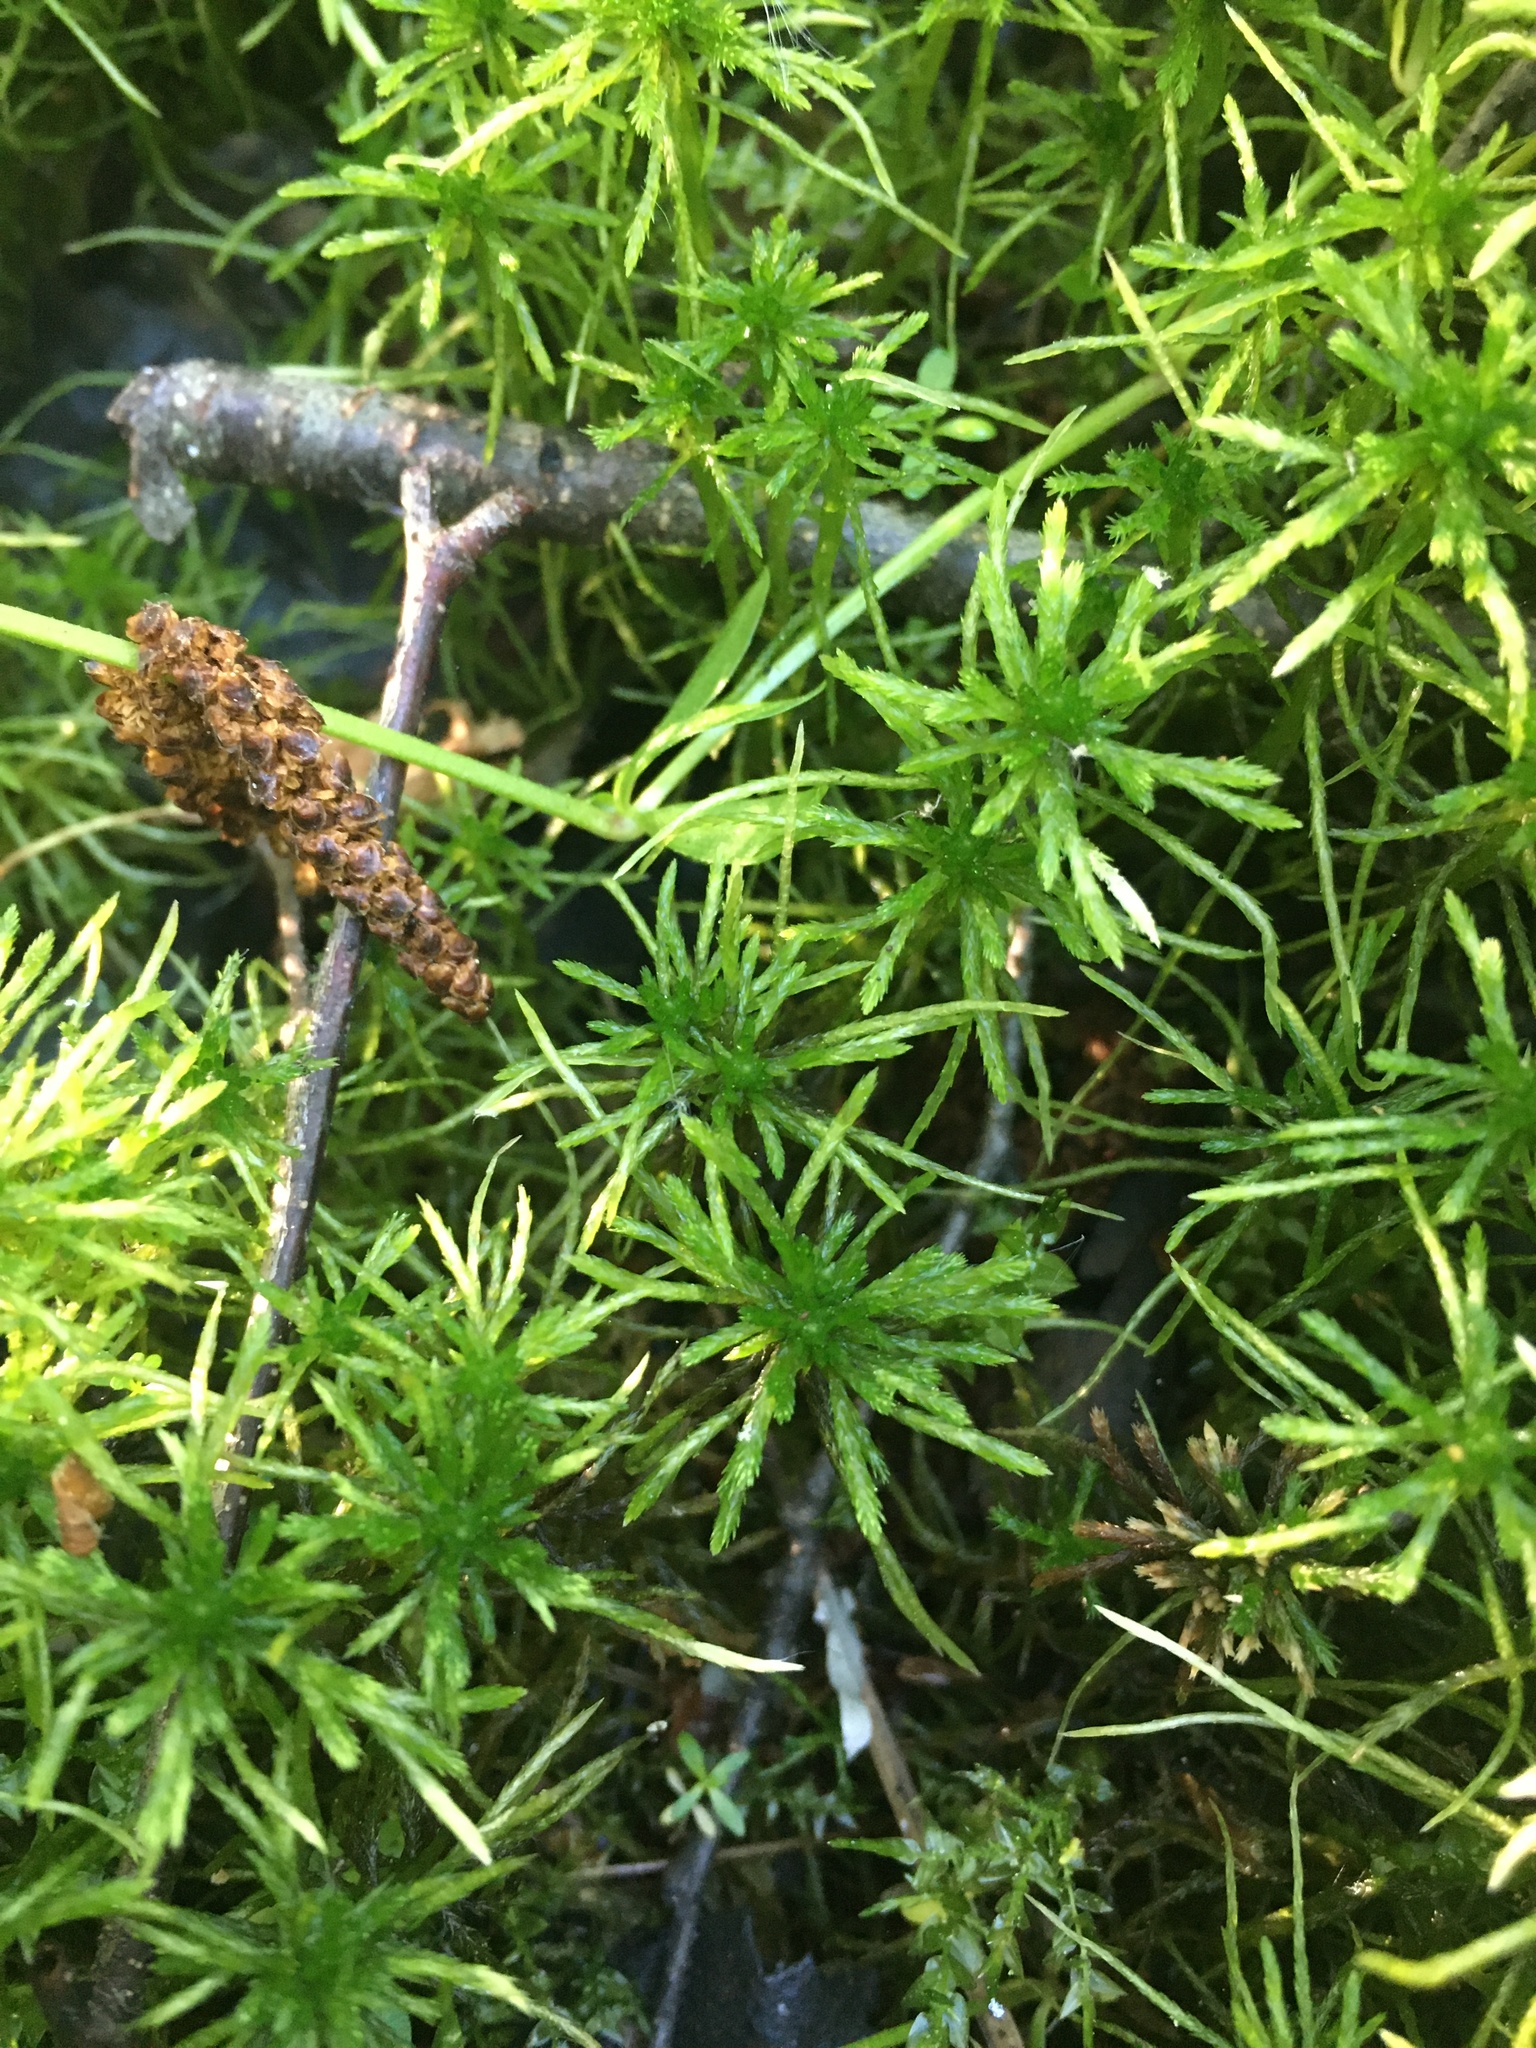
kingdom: Plantae
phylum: Bryophyta
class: Sphagnopsida
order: Sphagnales
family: Sphagnaceae
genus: Sphagnum
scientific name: Sphagnum girgensohnii
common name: Girgensohn's peat moss
